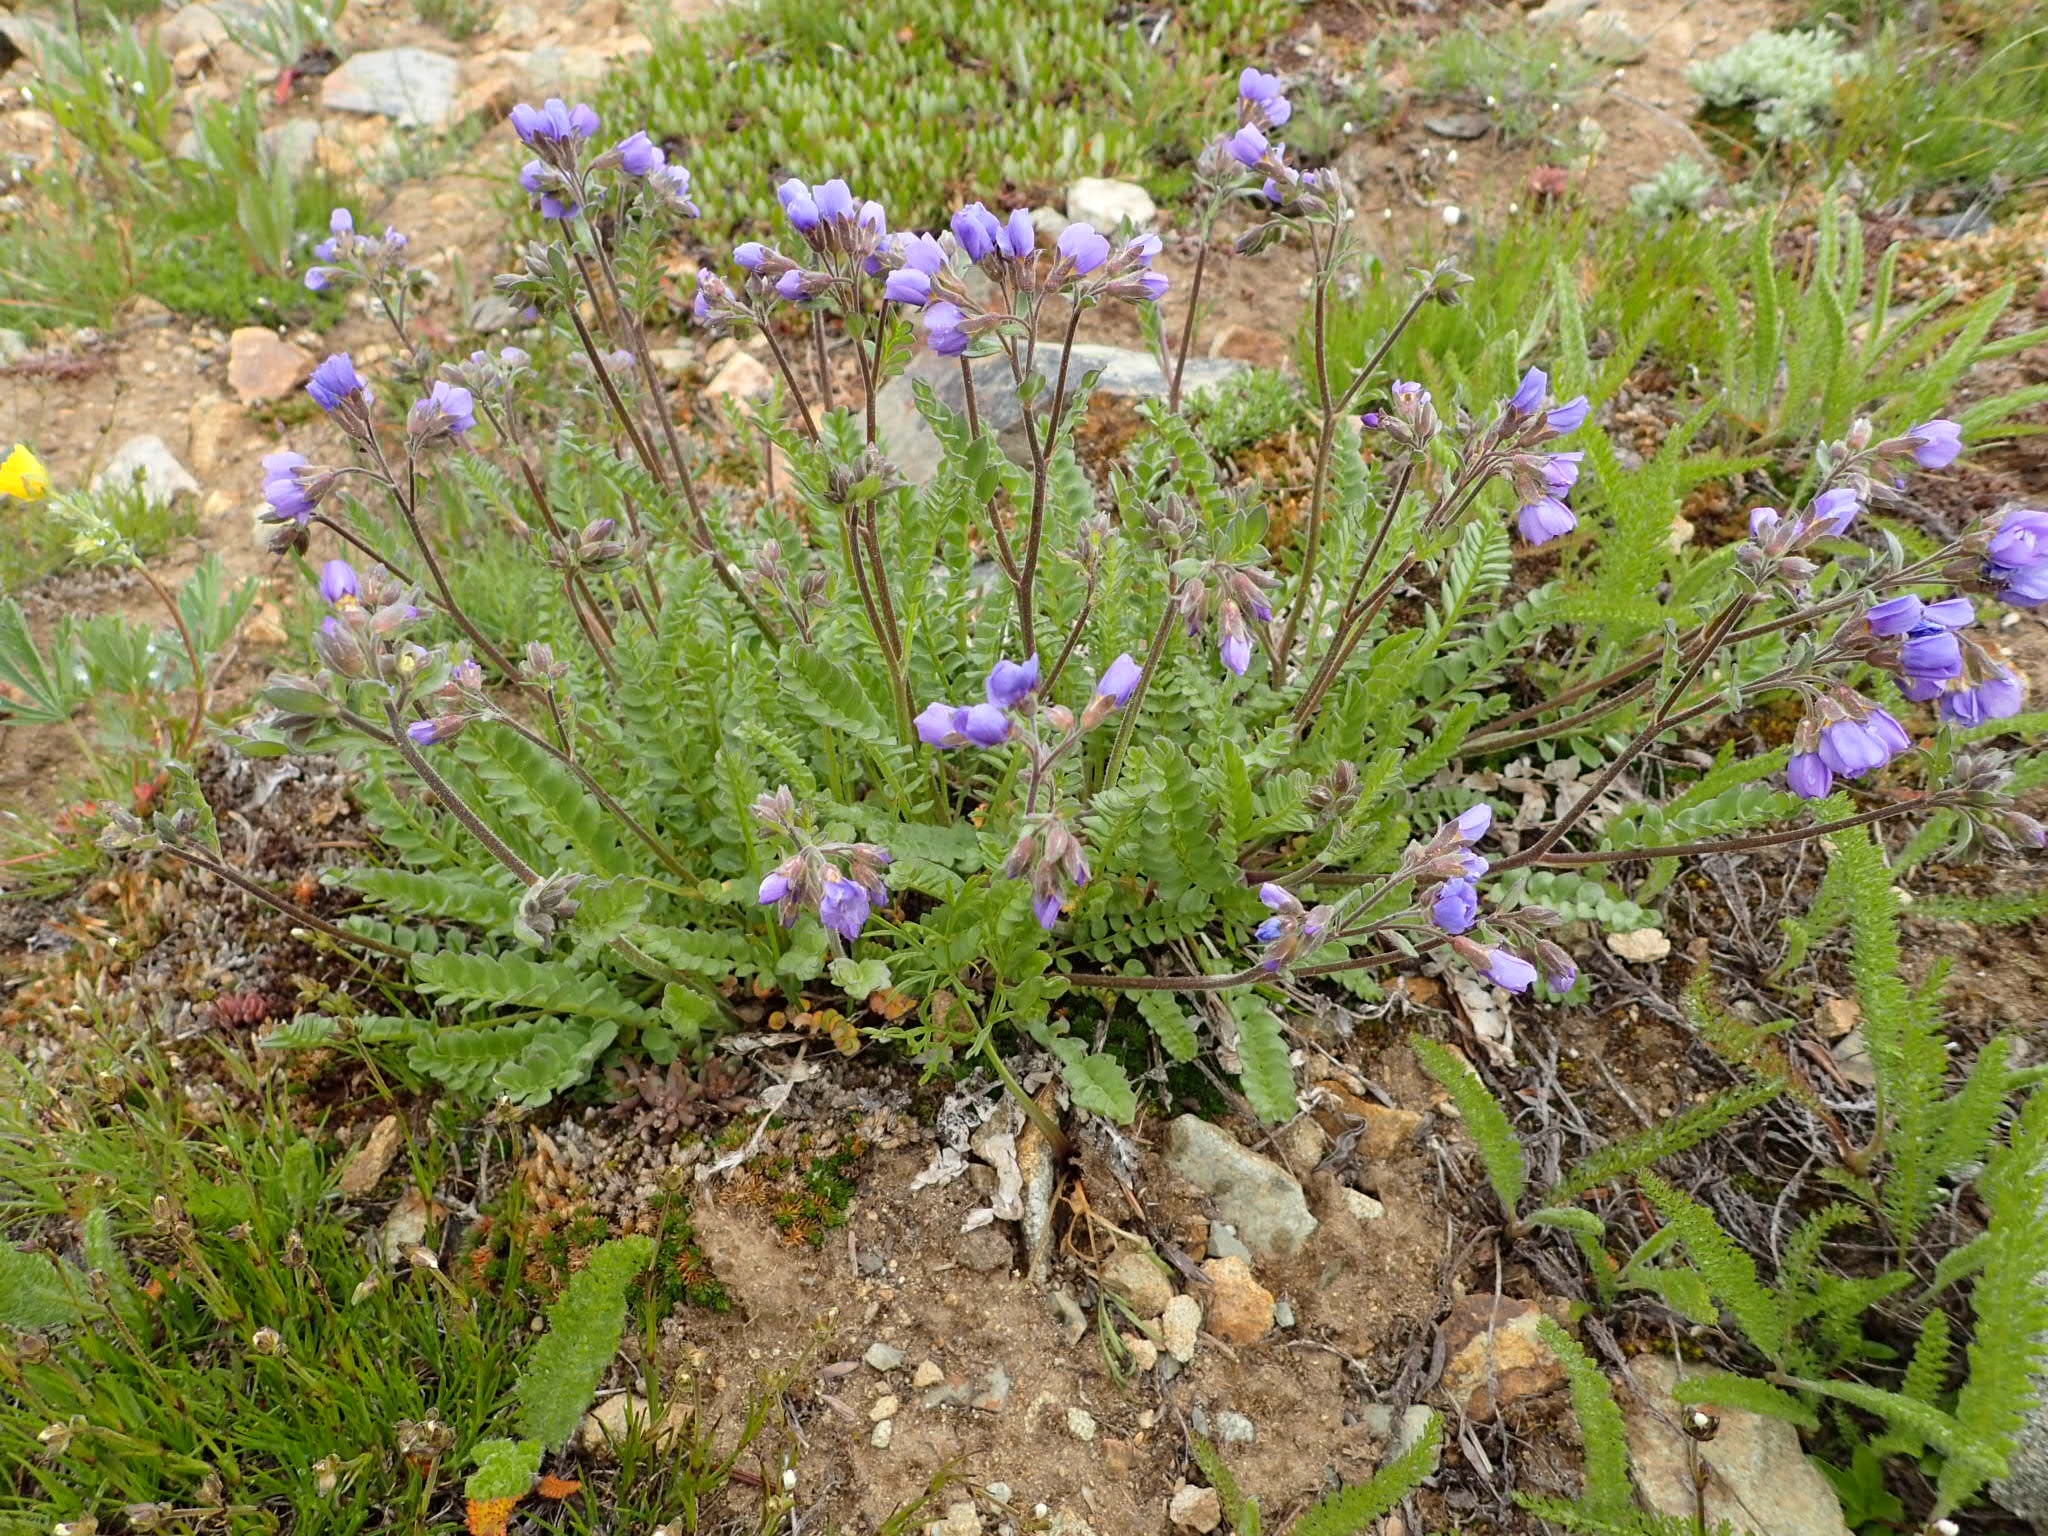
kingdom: Plantae
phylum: Tracheophyta
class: Magnoliopsida
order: Ericales
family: Polemoniaceae
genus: Polemonium
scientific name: Polemonium pulcherrimum
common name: Short jacob's-ladder
